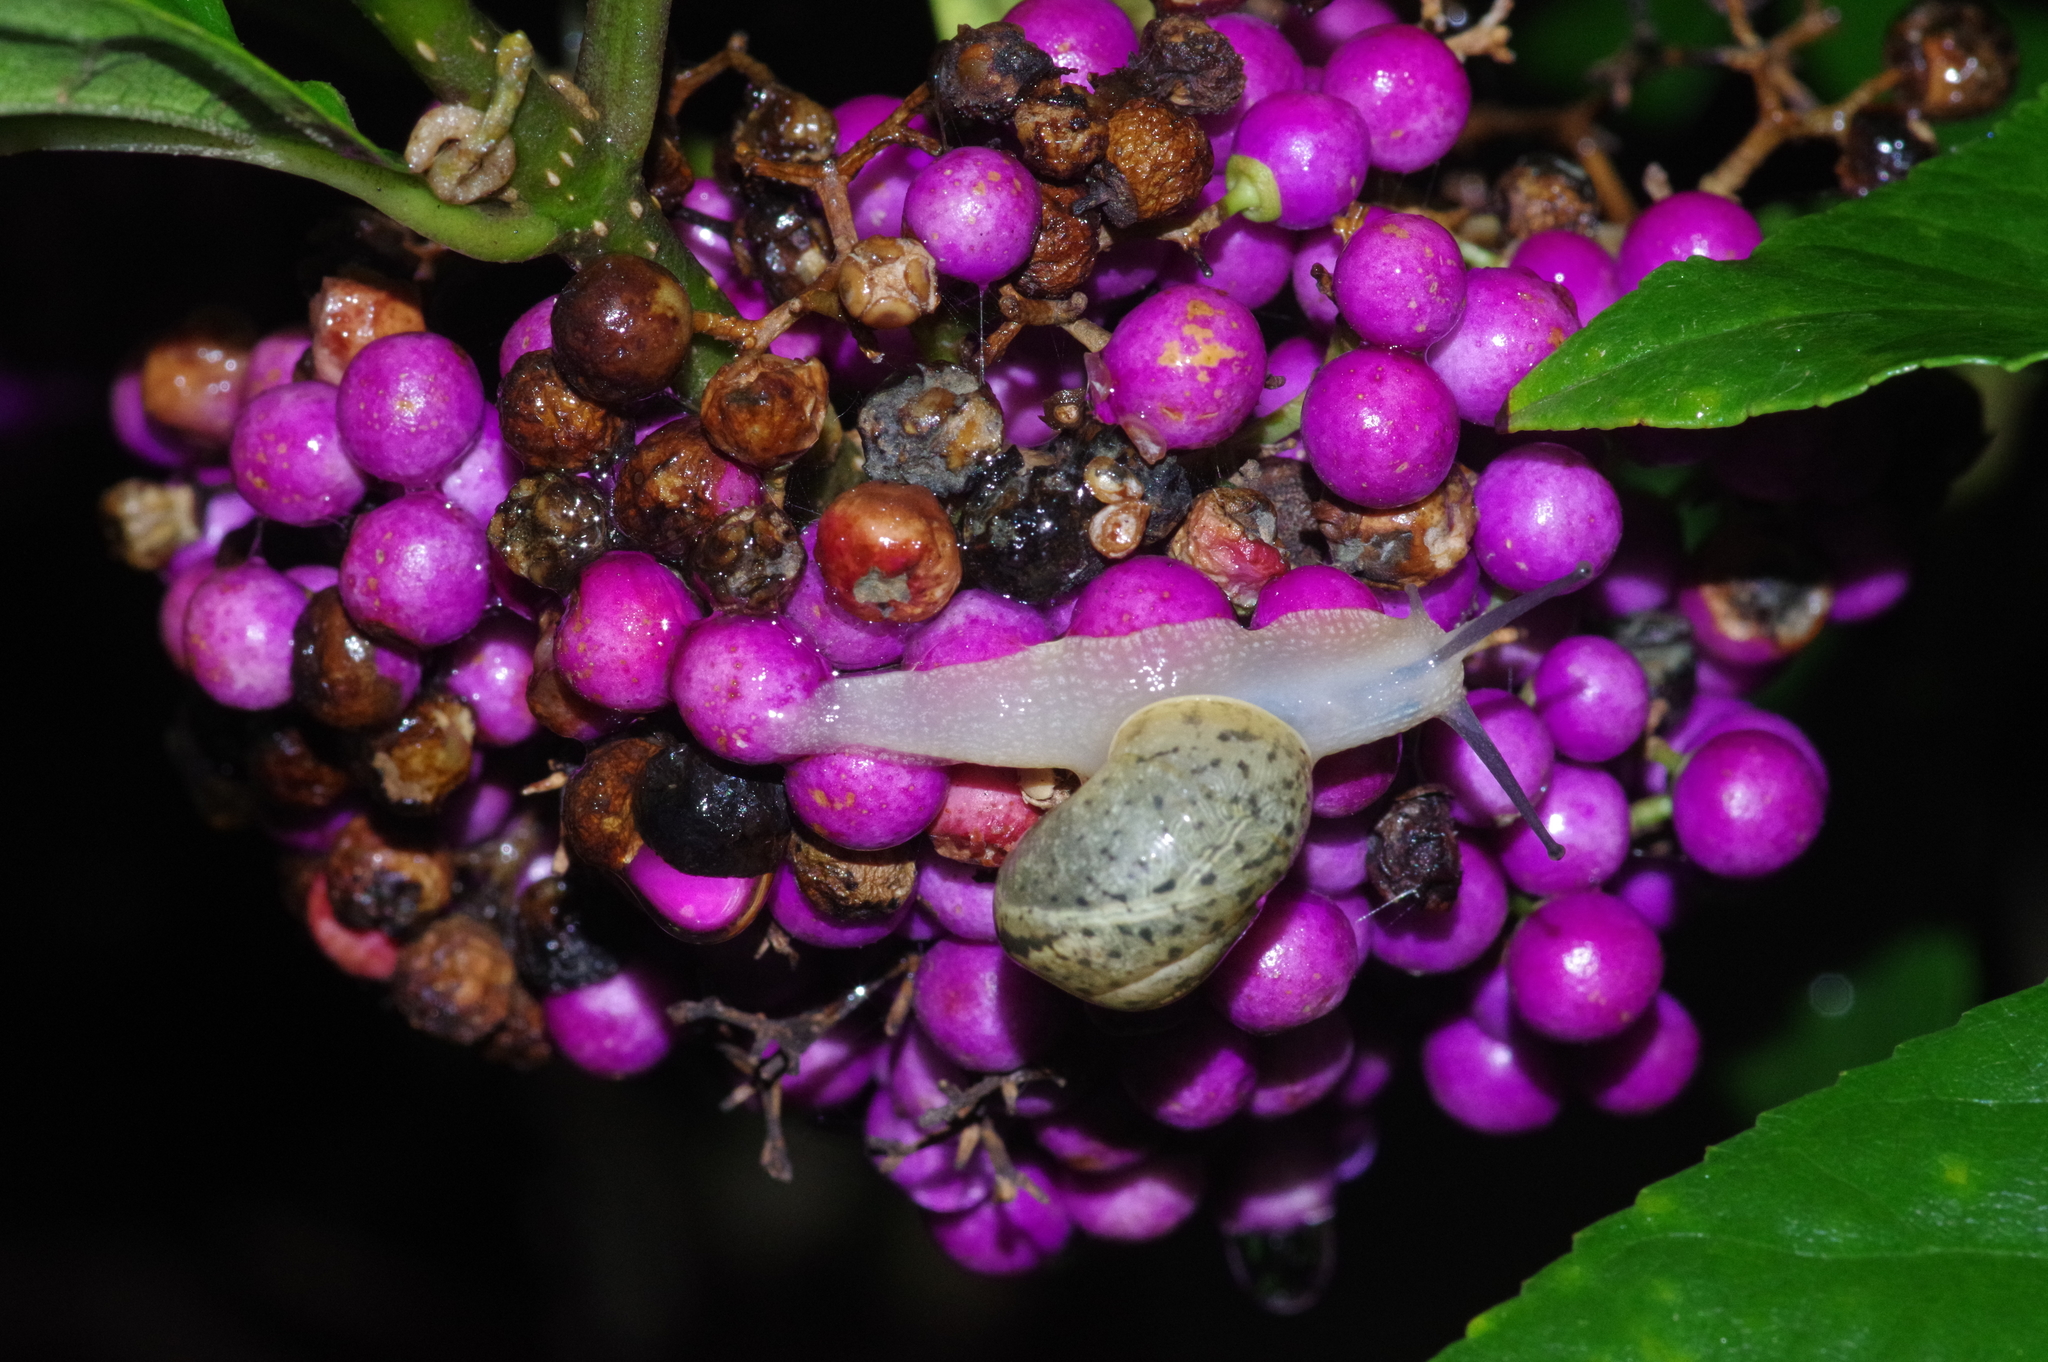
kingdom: Animalia
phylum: Mollusca
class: Gastropoda
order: Stylommatophora
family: Camaenidae
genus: Acusta
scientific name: Acusta despecta
